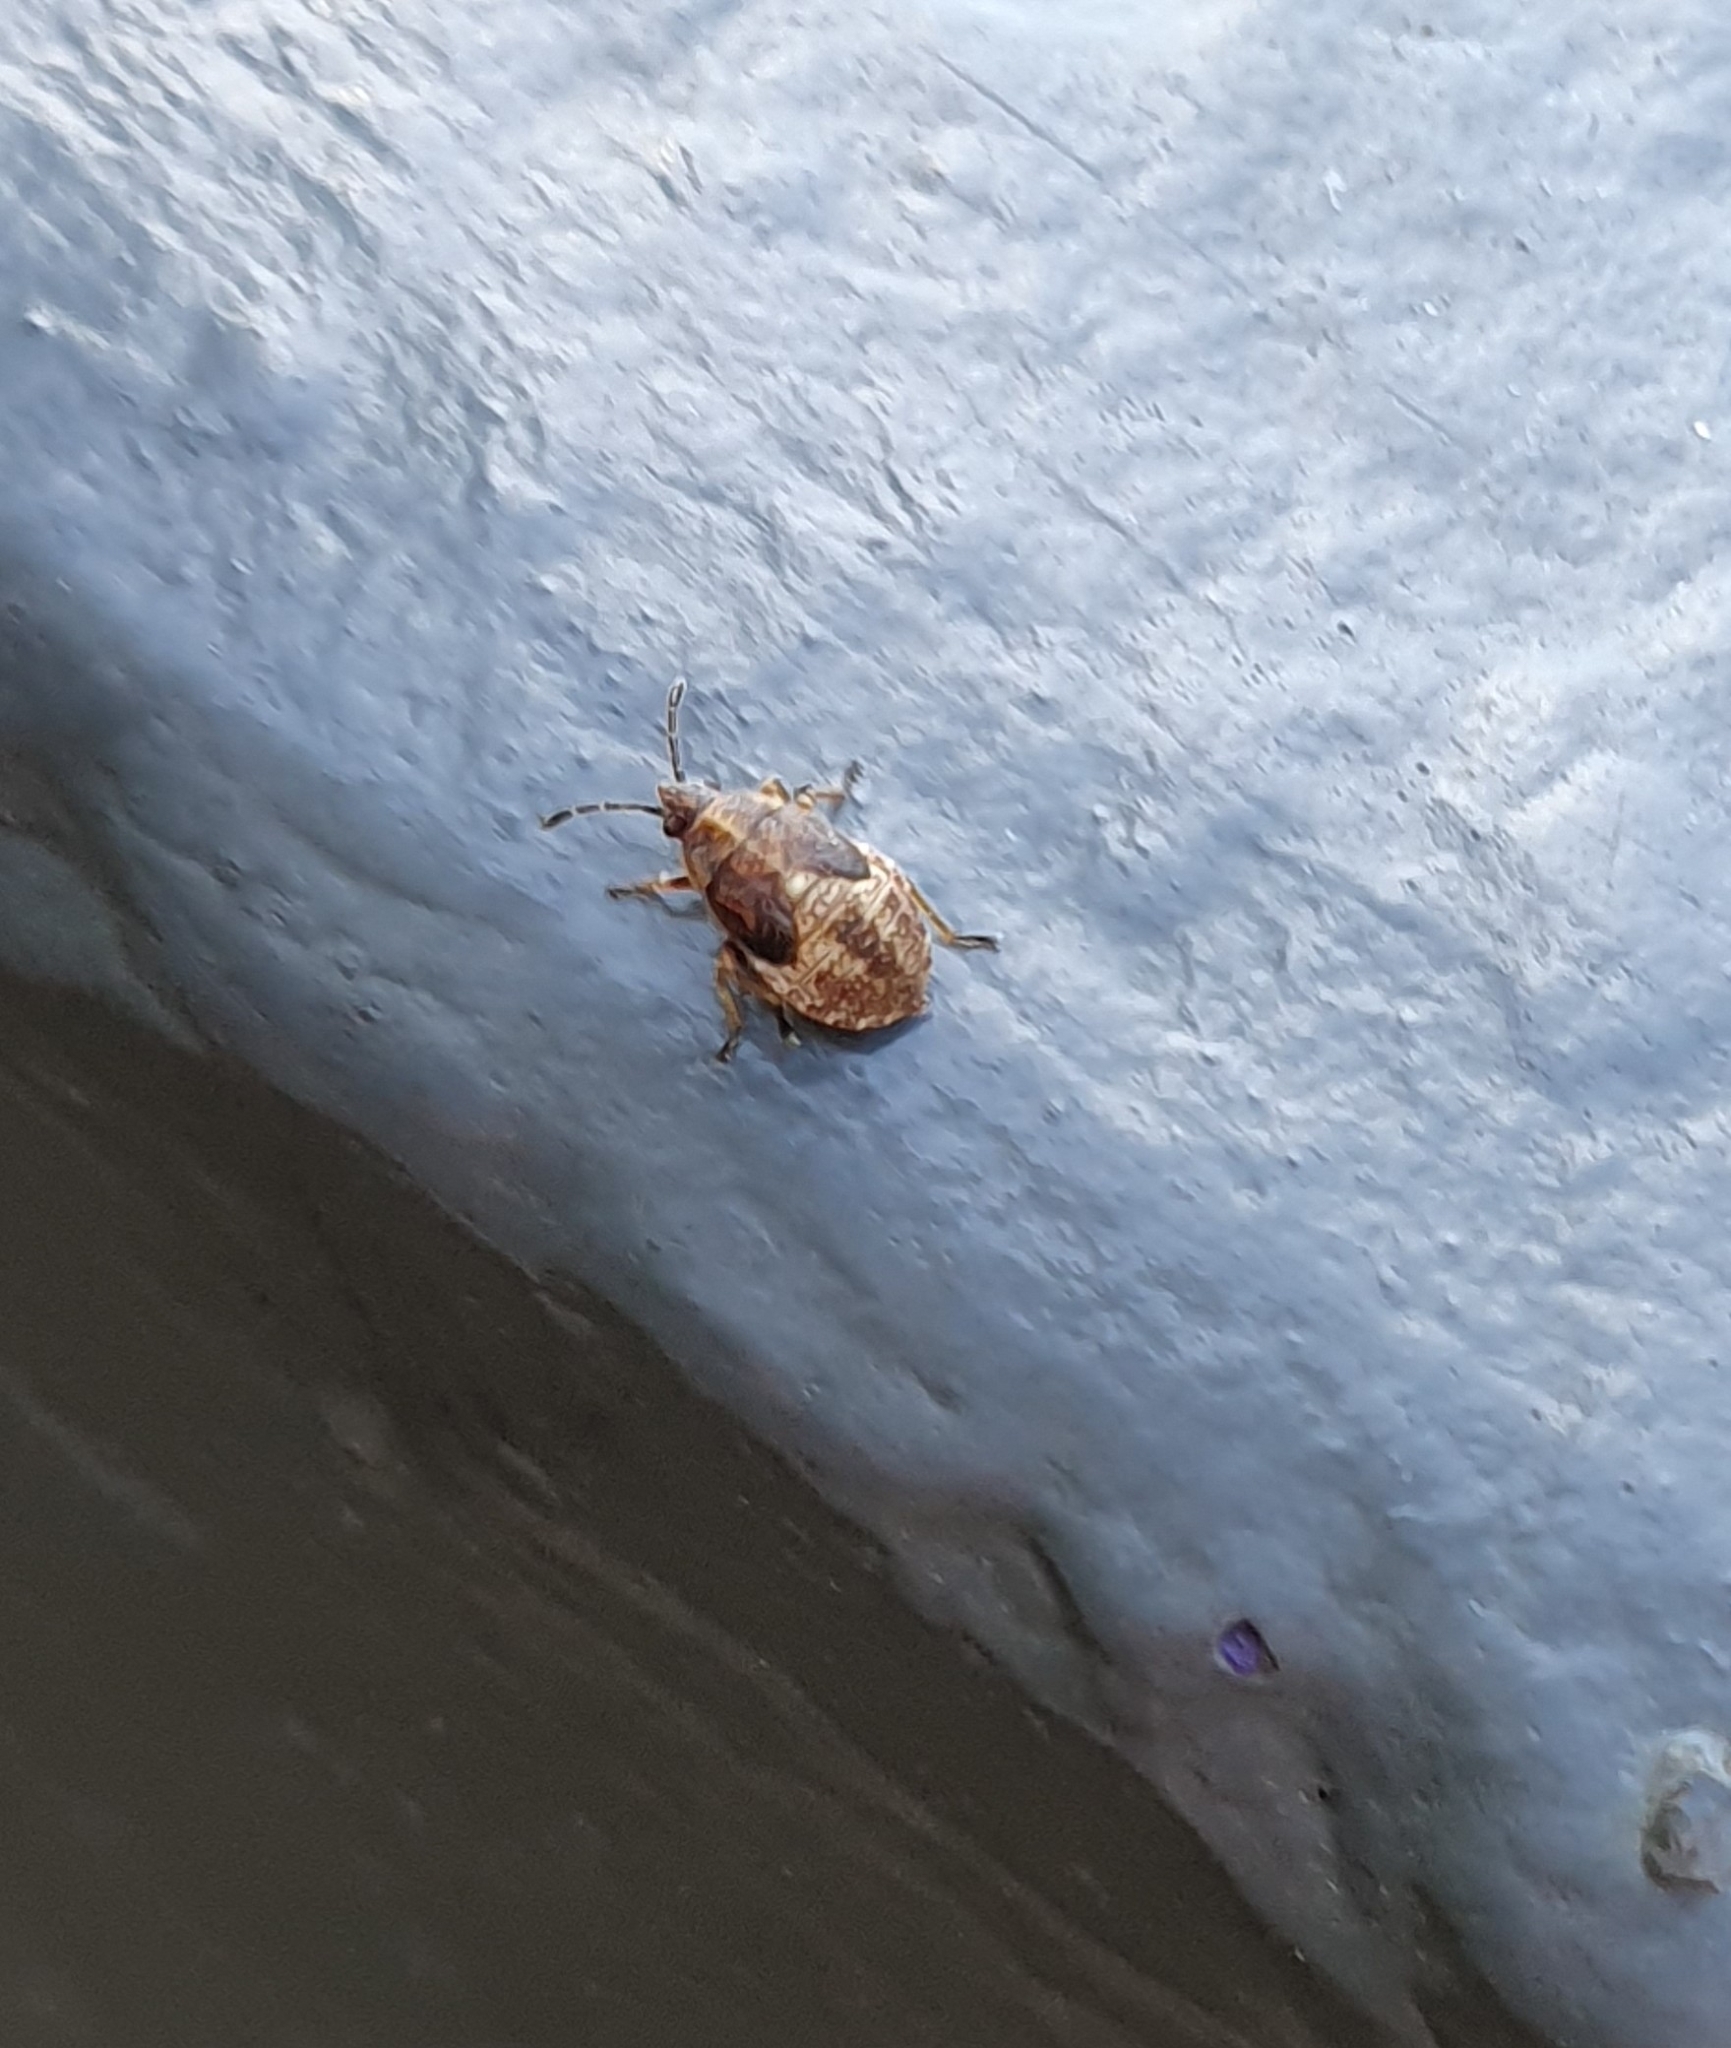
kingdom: Animalia
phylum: Arthropoda
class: Insecta
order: Hemiptera
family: Lygaeidae
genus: Kleidocerys
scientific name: Kleidocerys resedae
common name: Birch catkin bug
